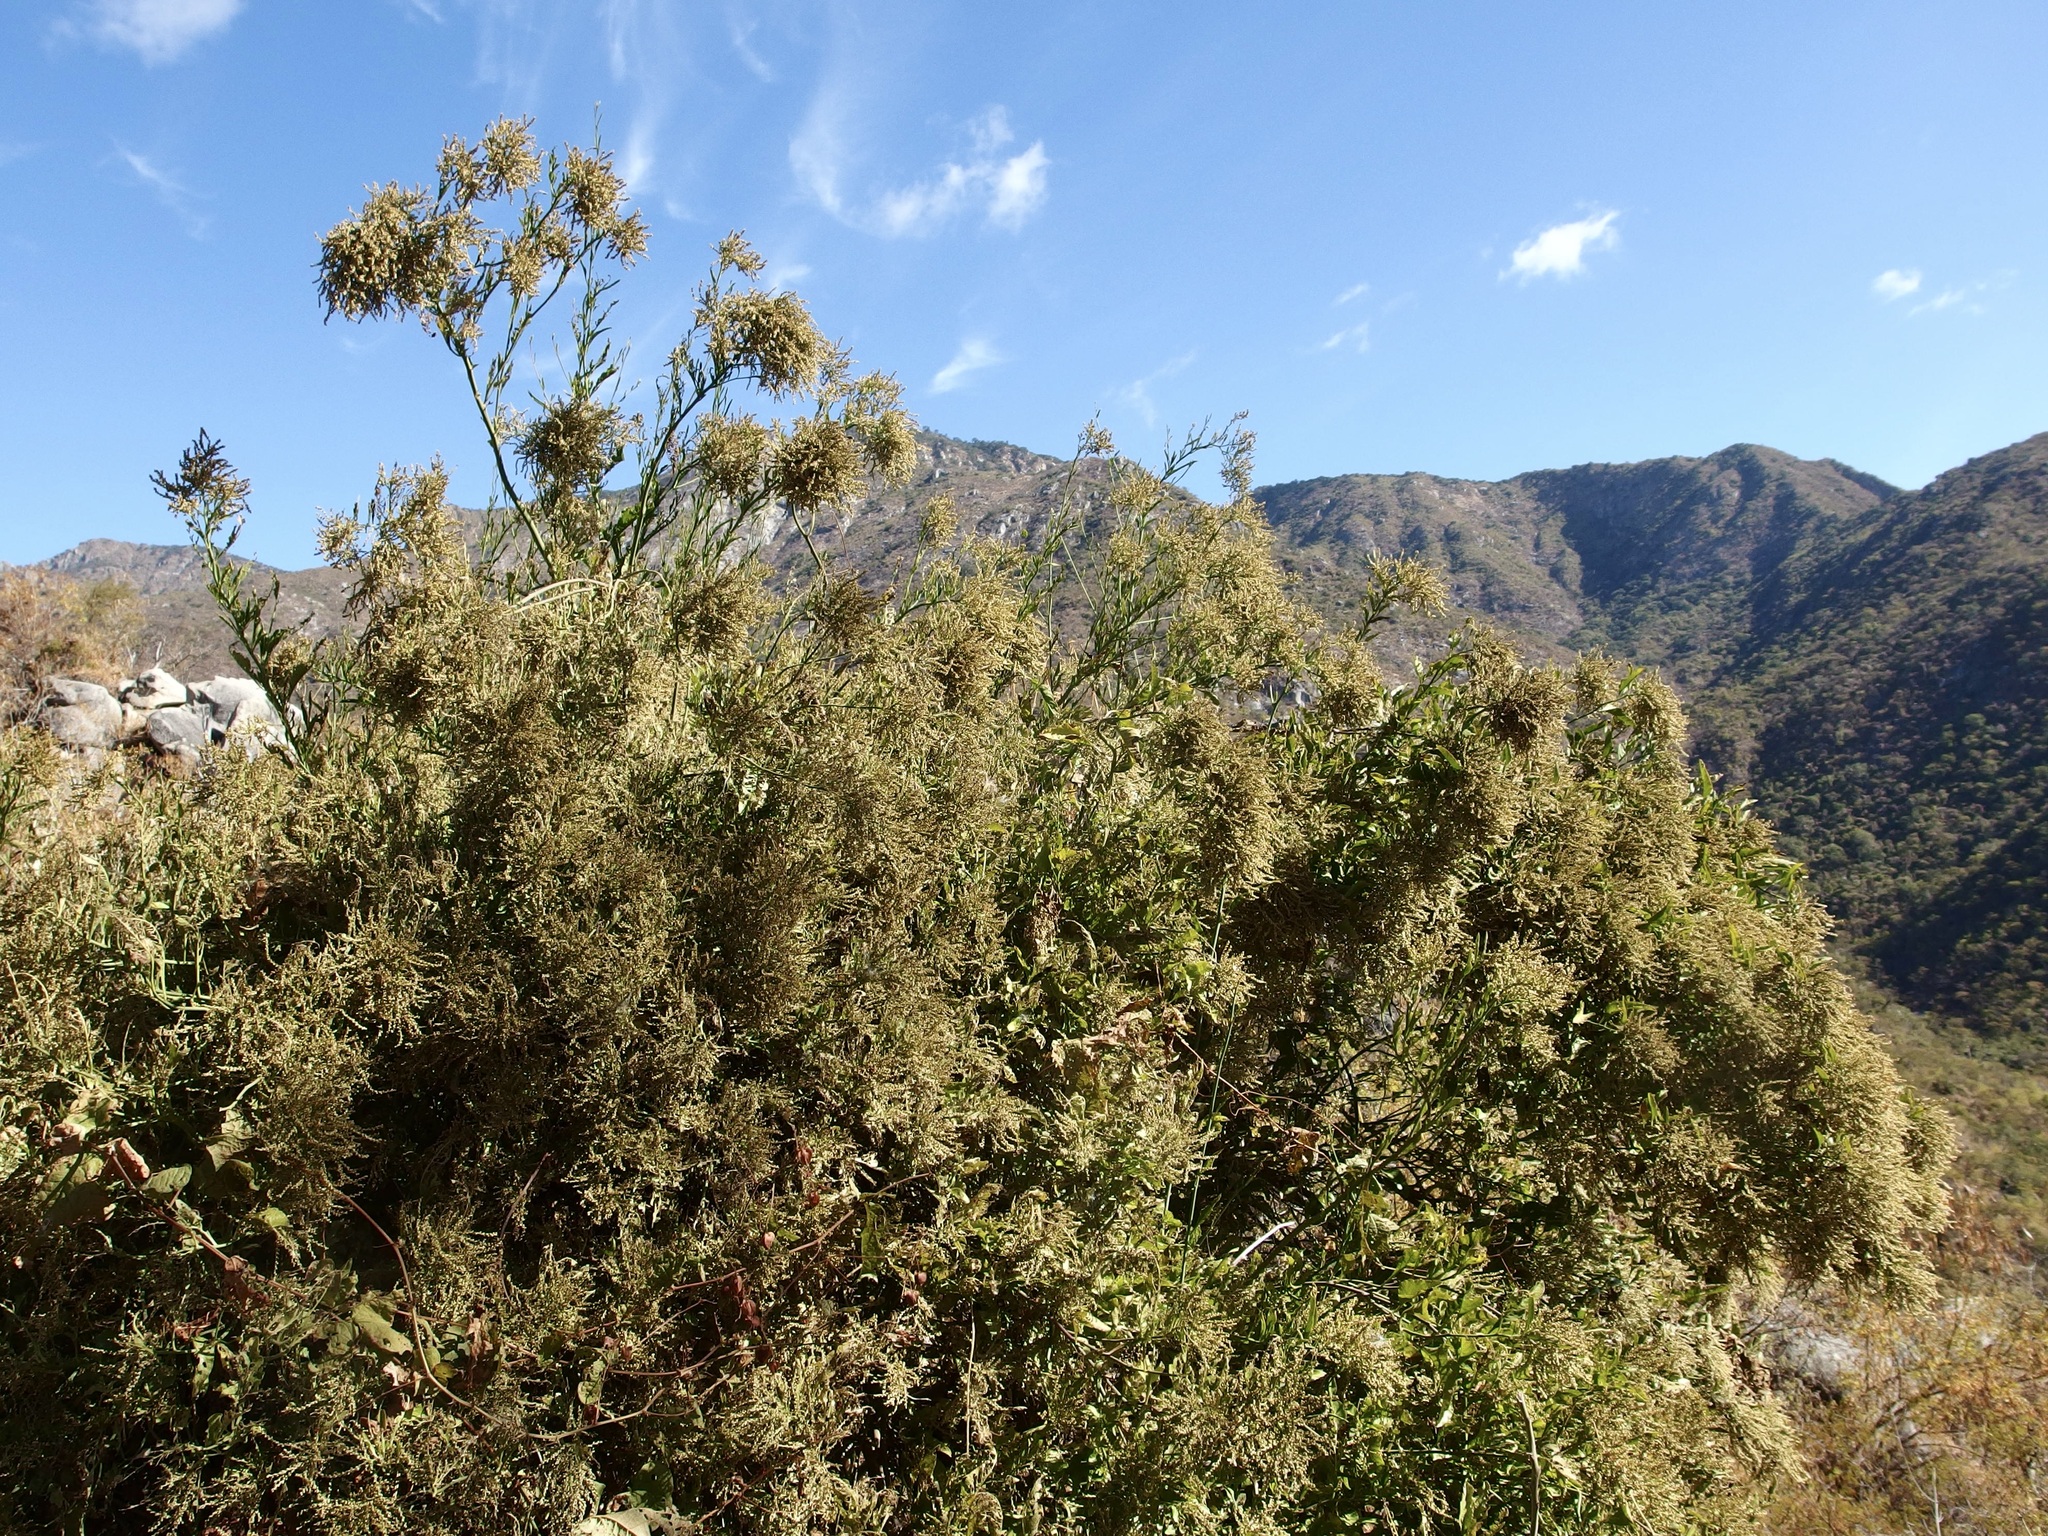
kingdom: Plantae
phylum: Tracheophyta
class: Magnoliopsida
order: Caryophyllales
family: Amaranthaceae
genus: Celosia
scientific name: Celosia floribunda
